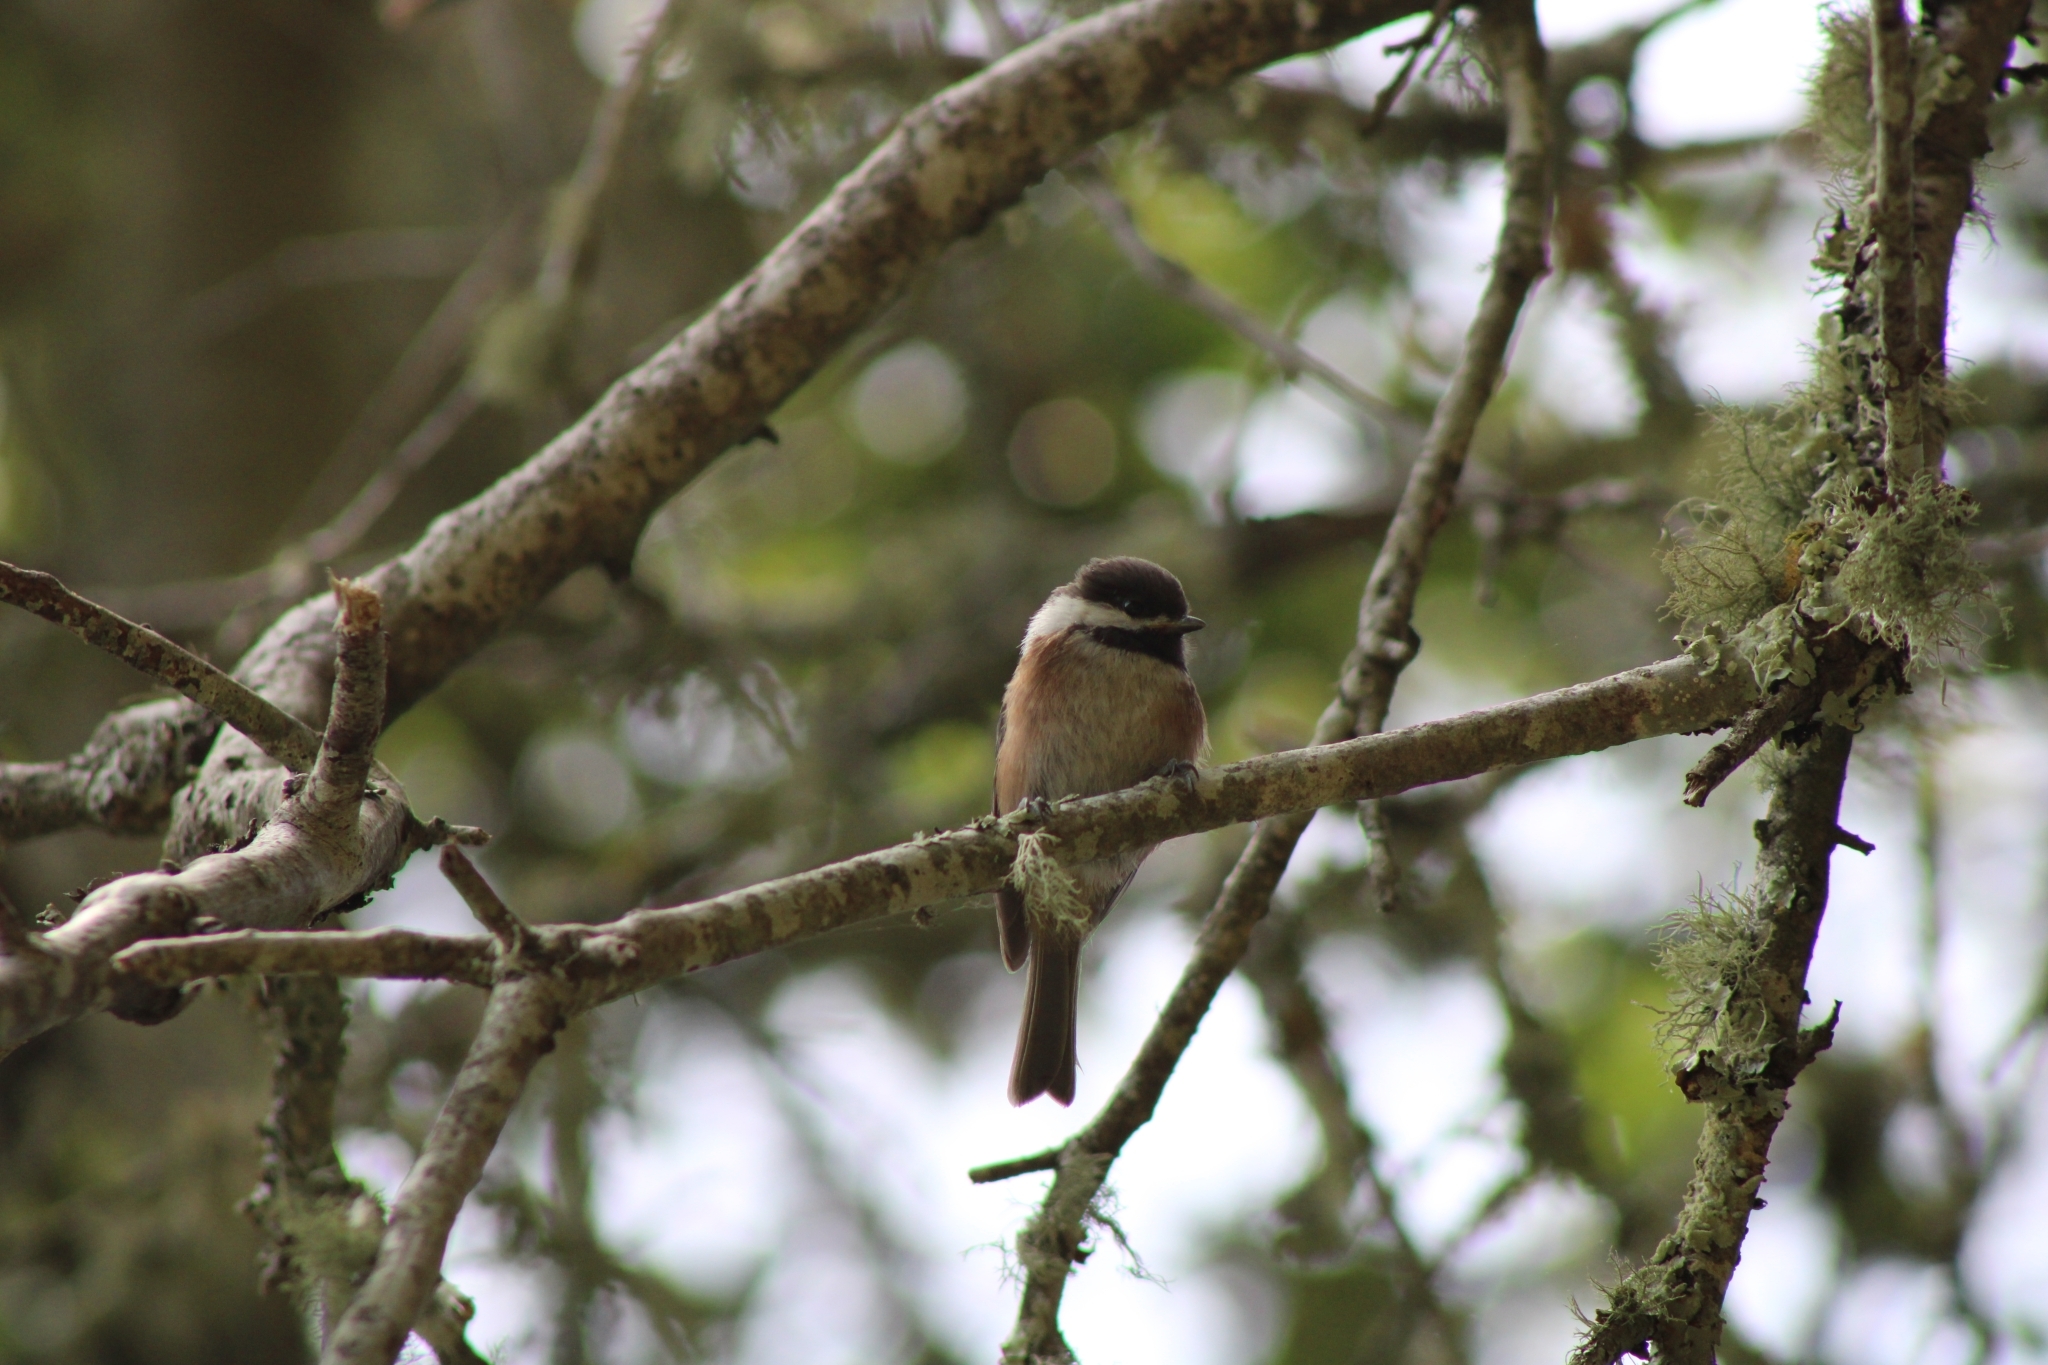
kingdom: Animalia
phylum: Chordata
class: Aves
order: Passeriformes
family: Paridae
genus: Poecile
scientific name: Poecile rufescens
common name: Chestnut-backed chickadee
